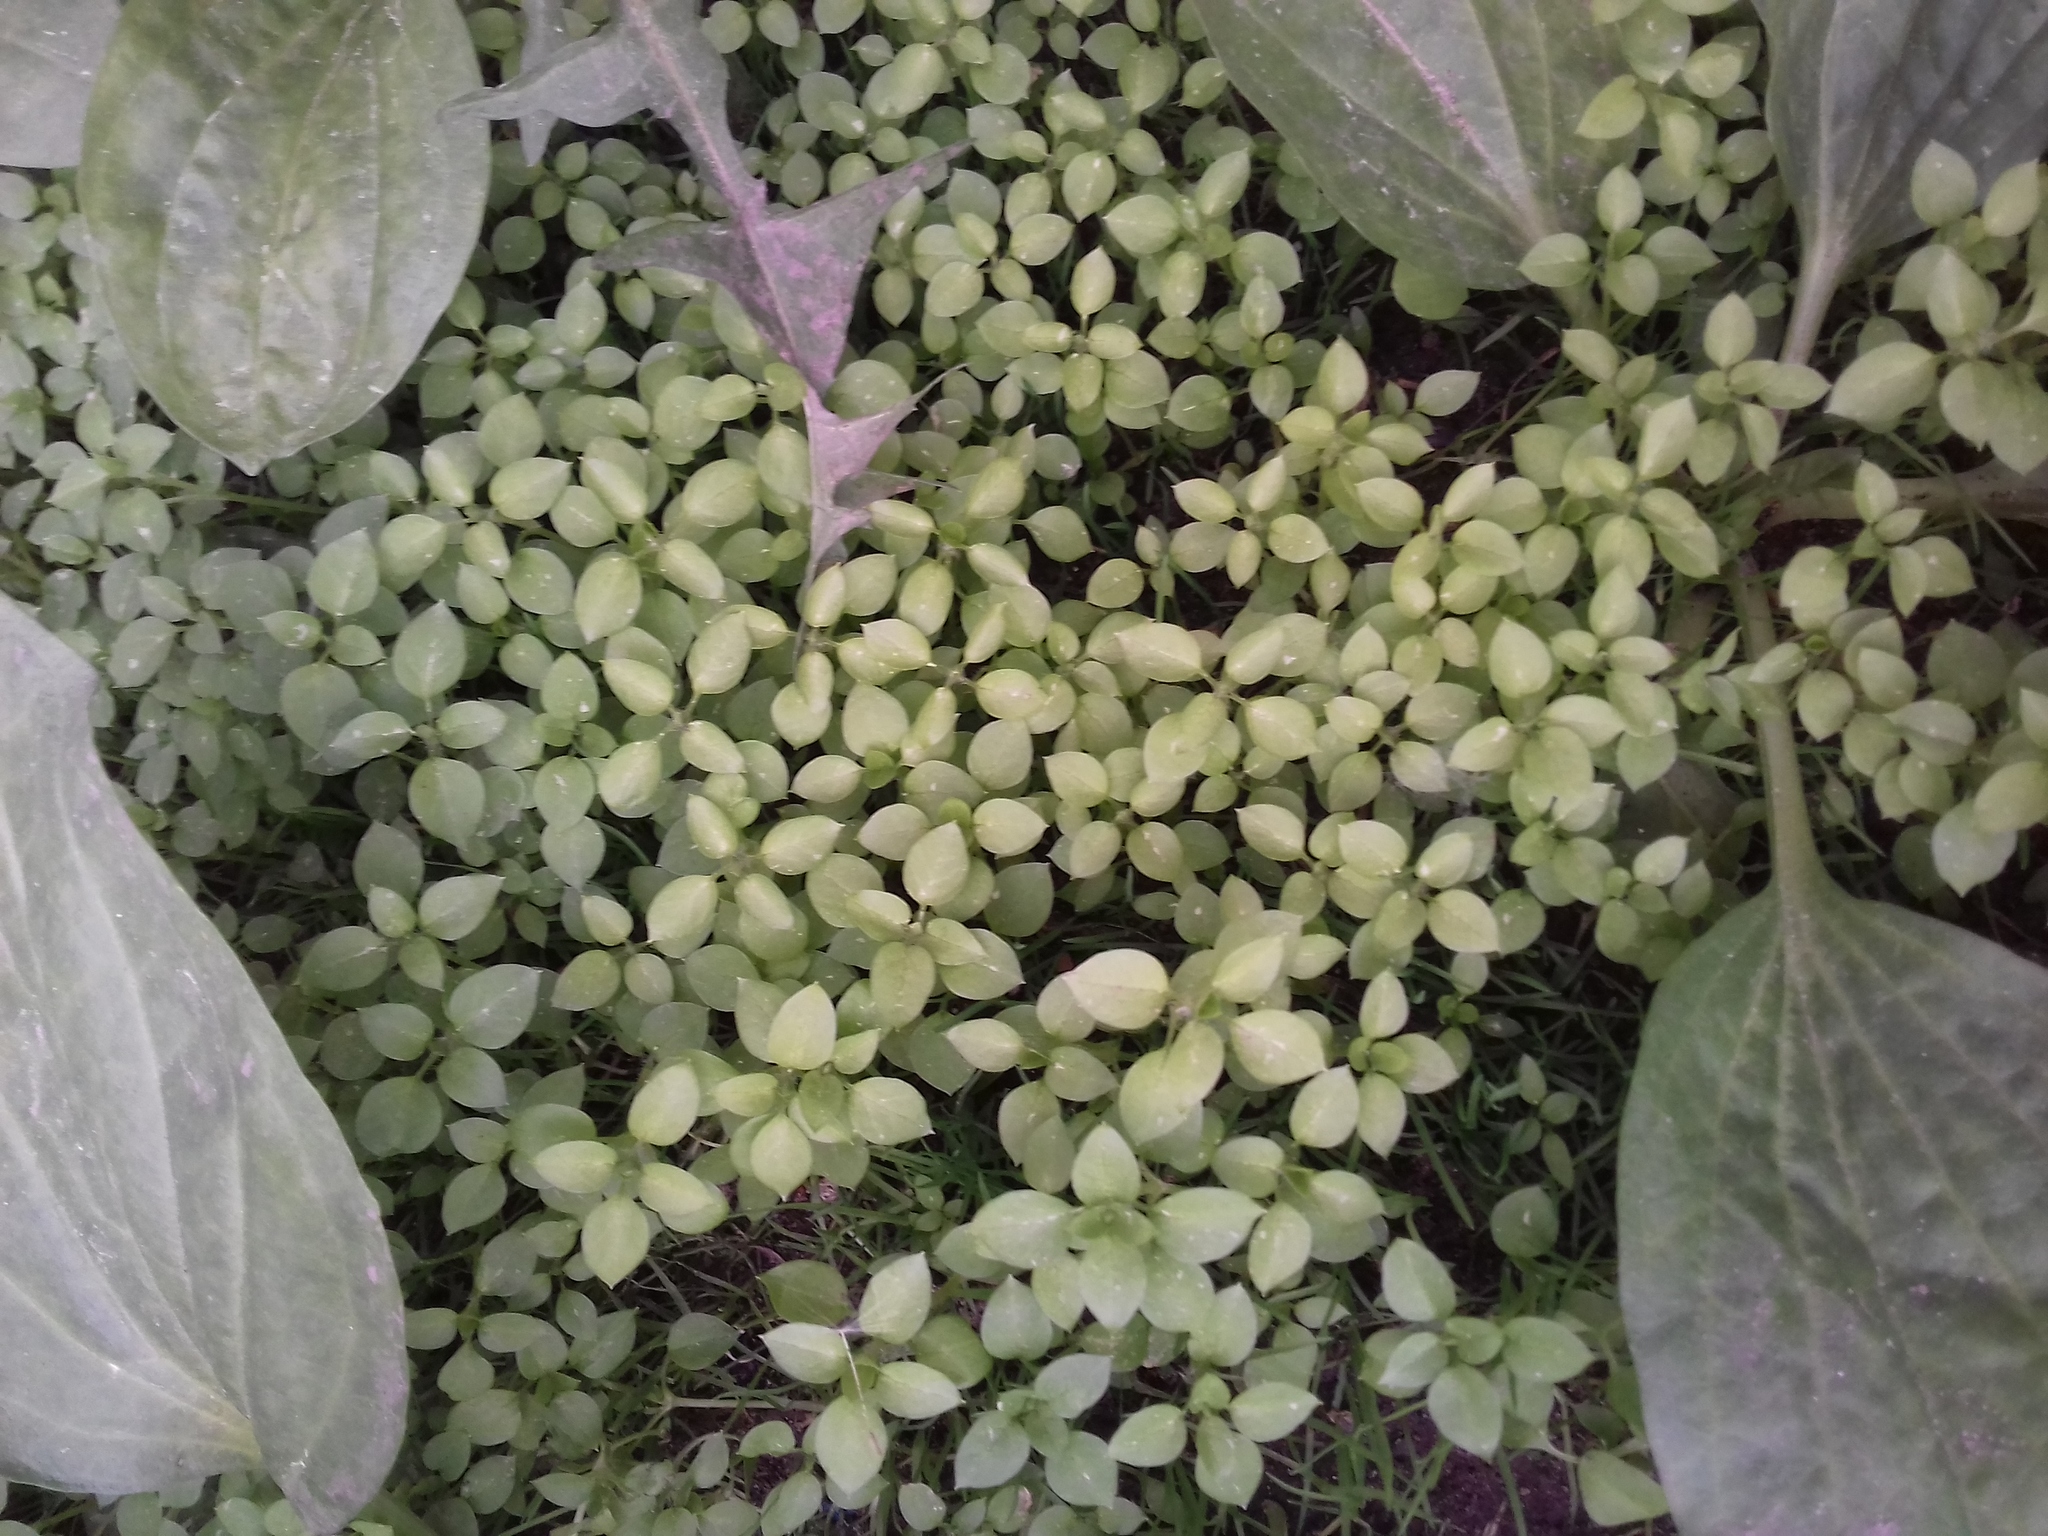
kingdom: Plantae
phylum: Tracheophyta
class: Magnoliopsida
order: Caryophyllales
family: Caryophyllaceae
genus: Stellaria
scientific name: Stellaria media
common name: Common chickweed
